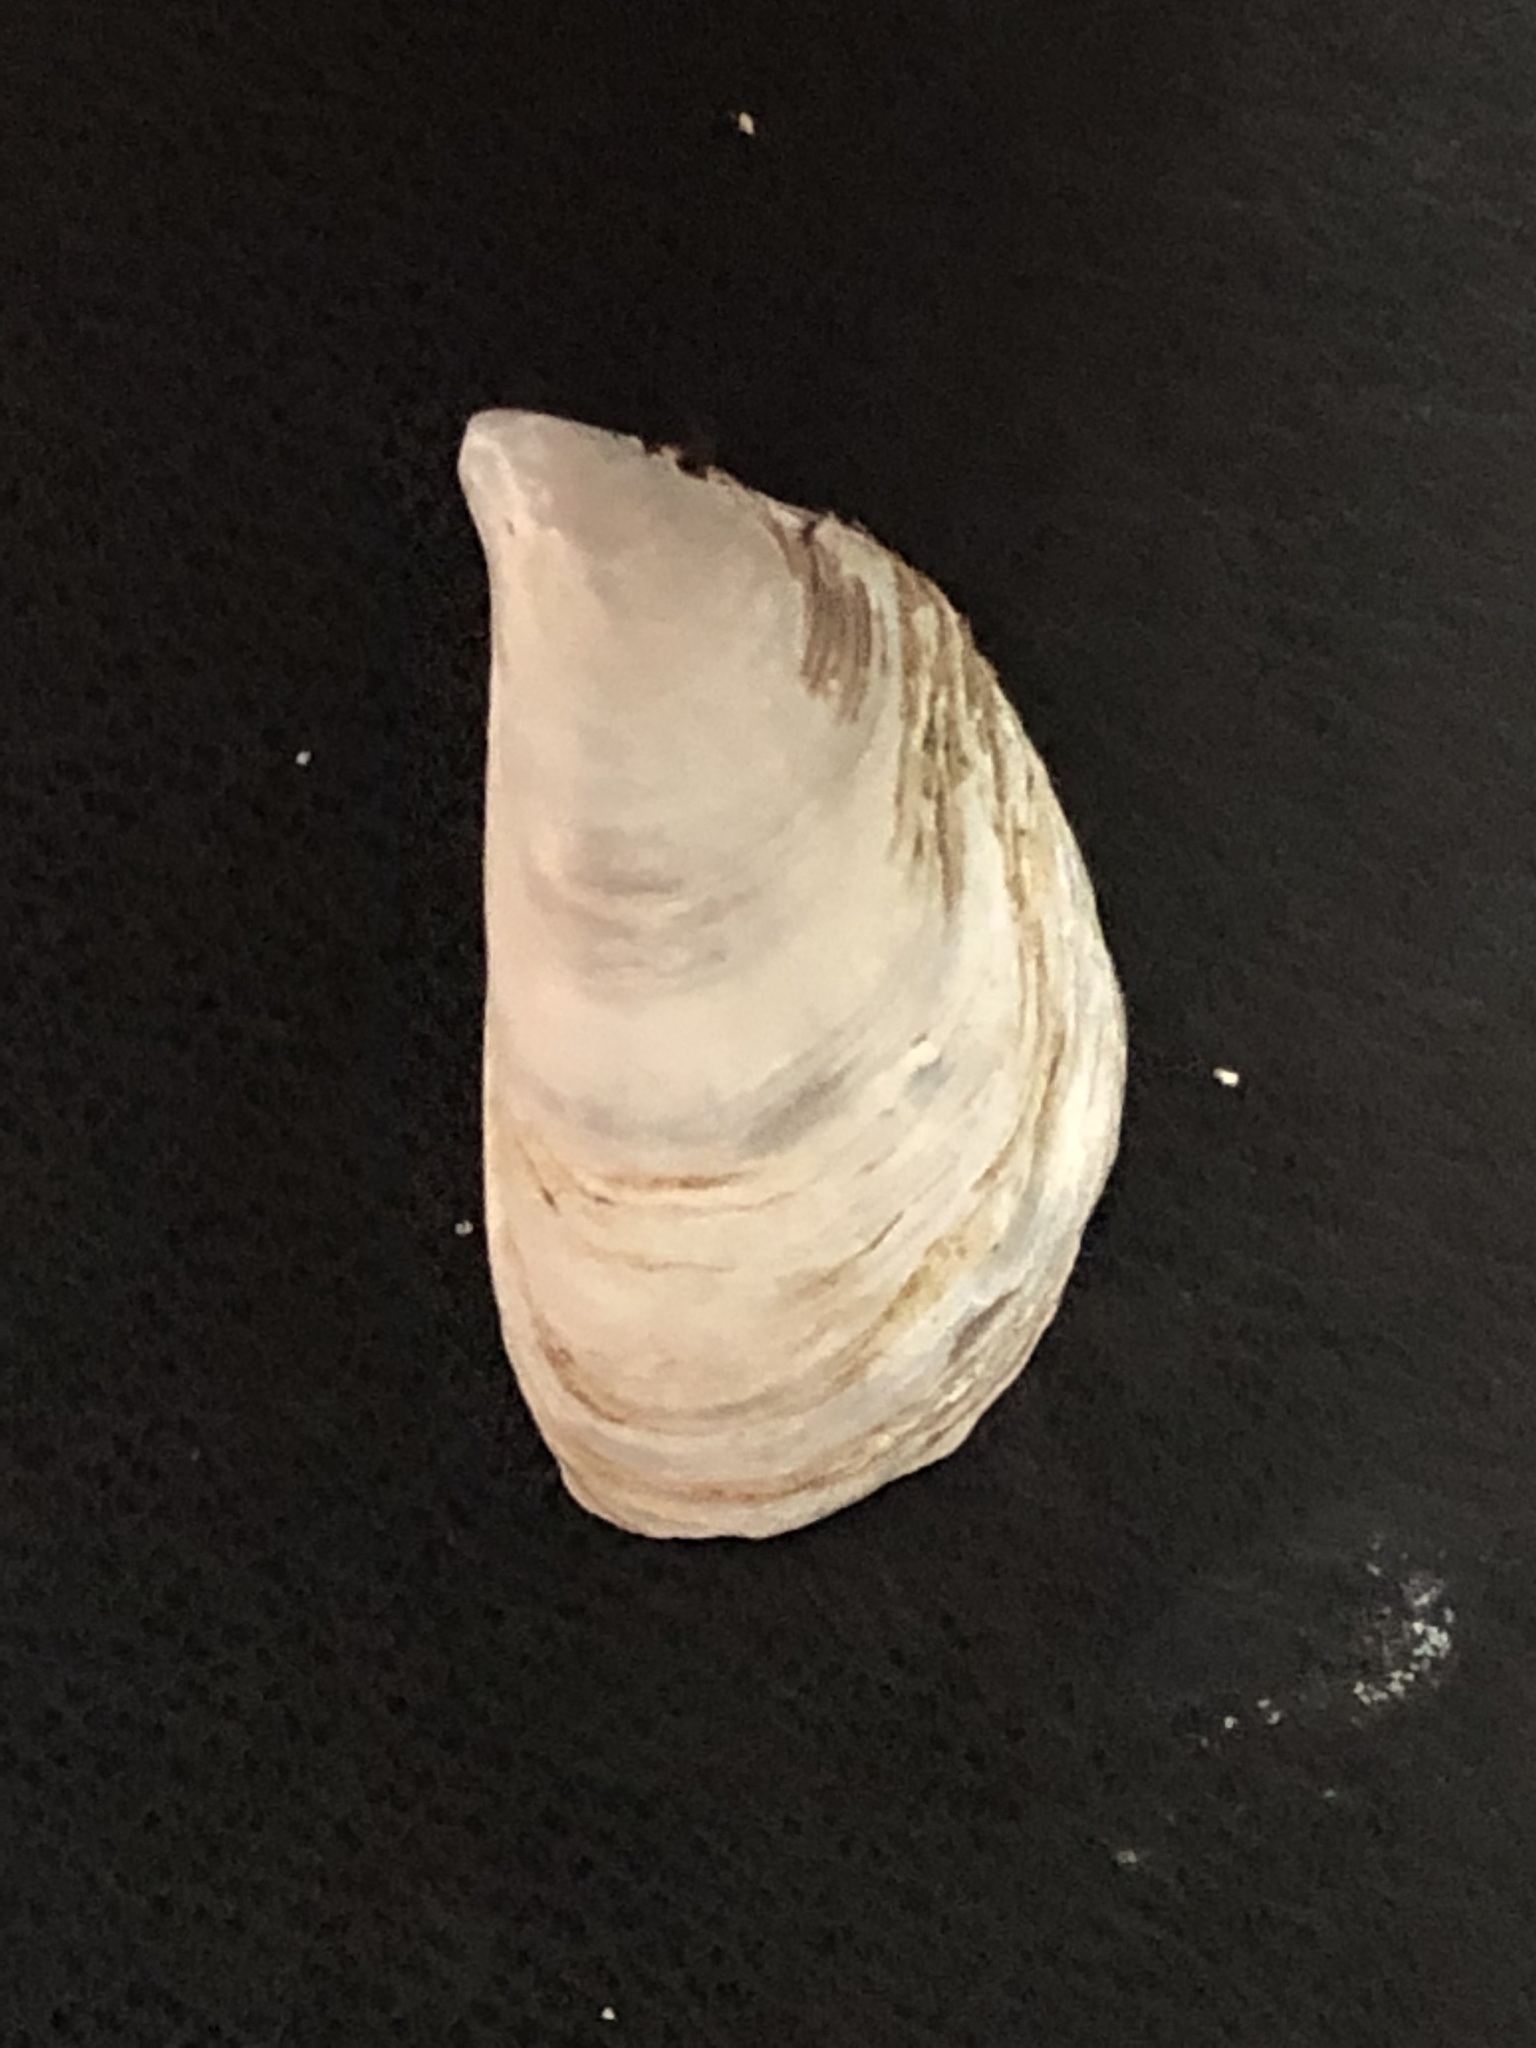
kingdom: Animalia
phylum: Mollusca
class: Bivalvia
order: Myida
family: Dreissenidae
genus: Dreissena
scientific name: Dreissena bugensis
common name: Quagga mussel
